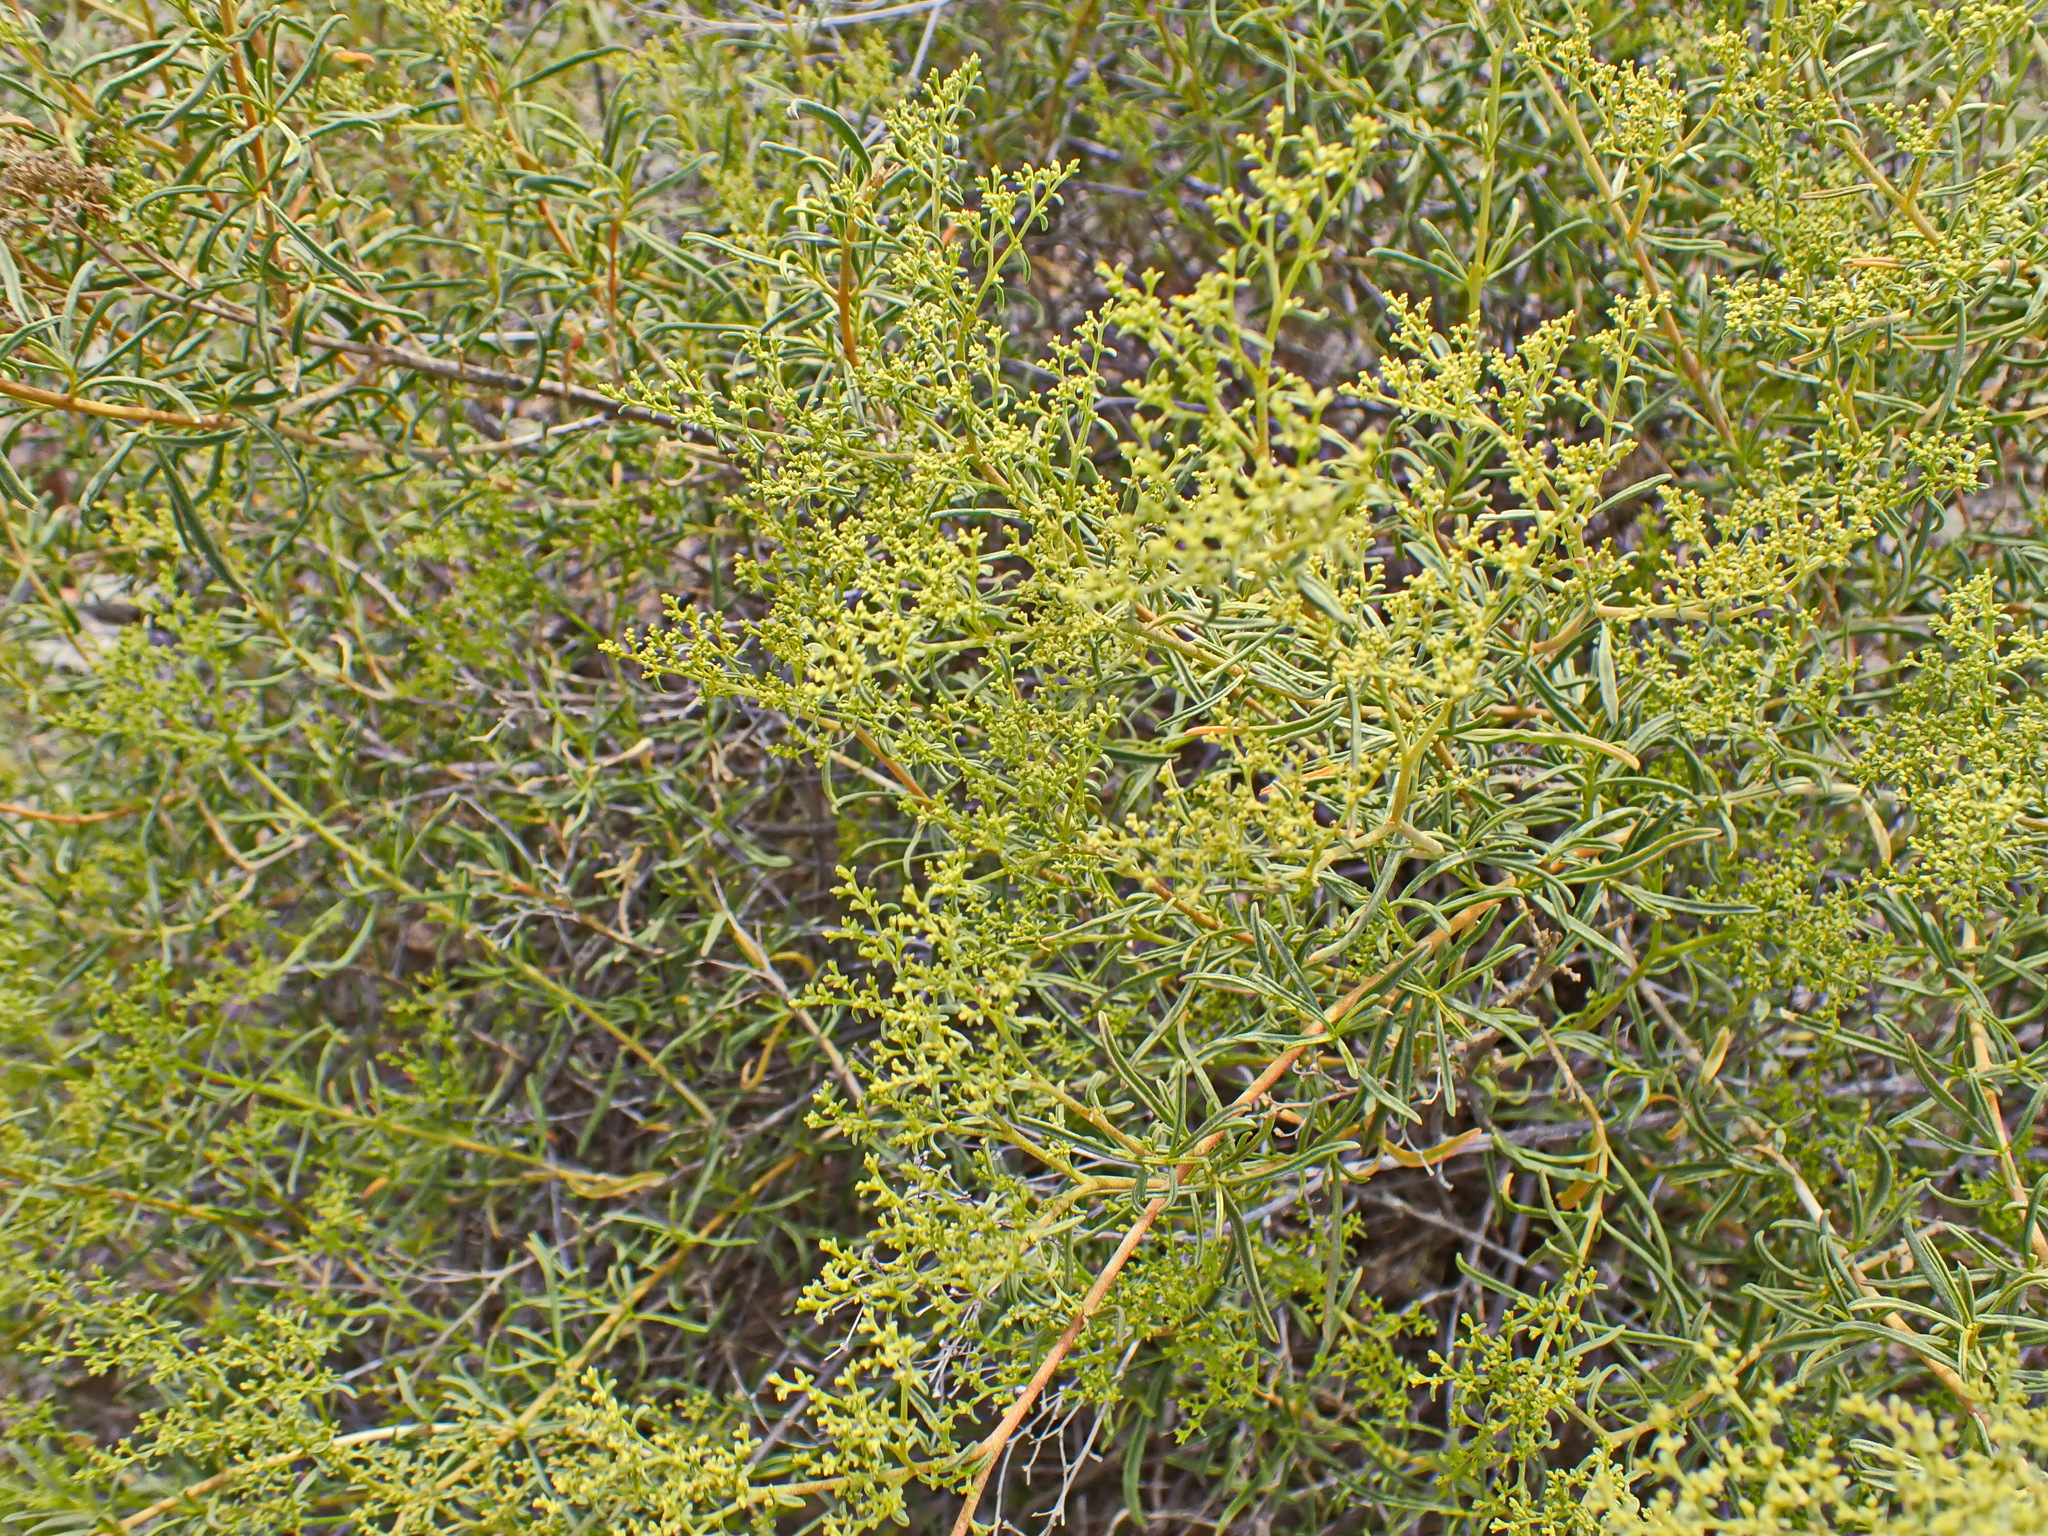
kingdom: Plantae
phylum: Tracheophyta
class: Magnoliopsida
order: Caryophyllales
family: Aizoaceae
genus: Aizoon
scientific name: Aizoon africanum
